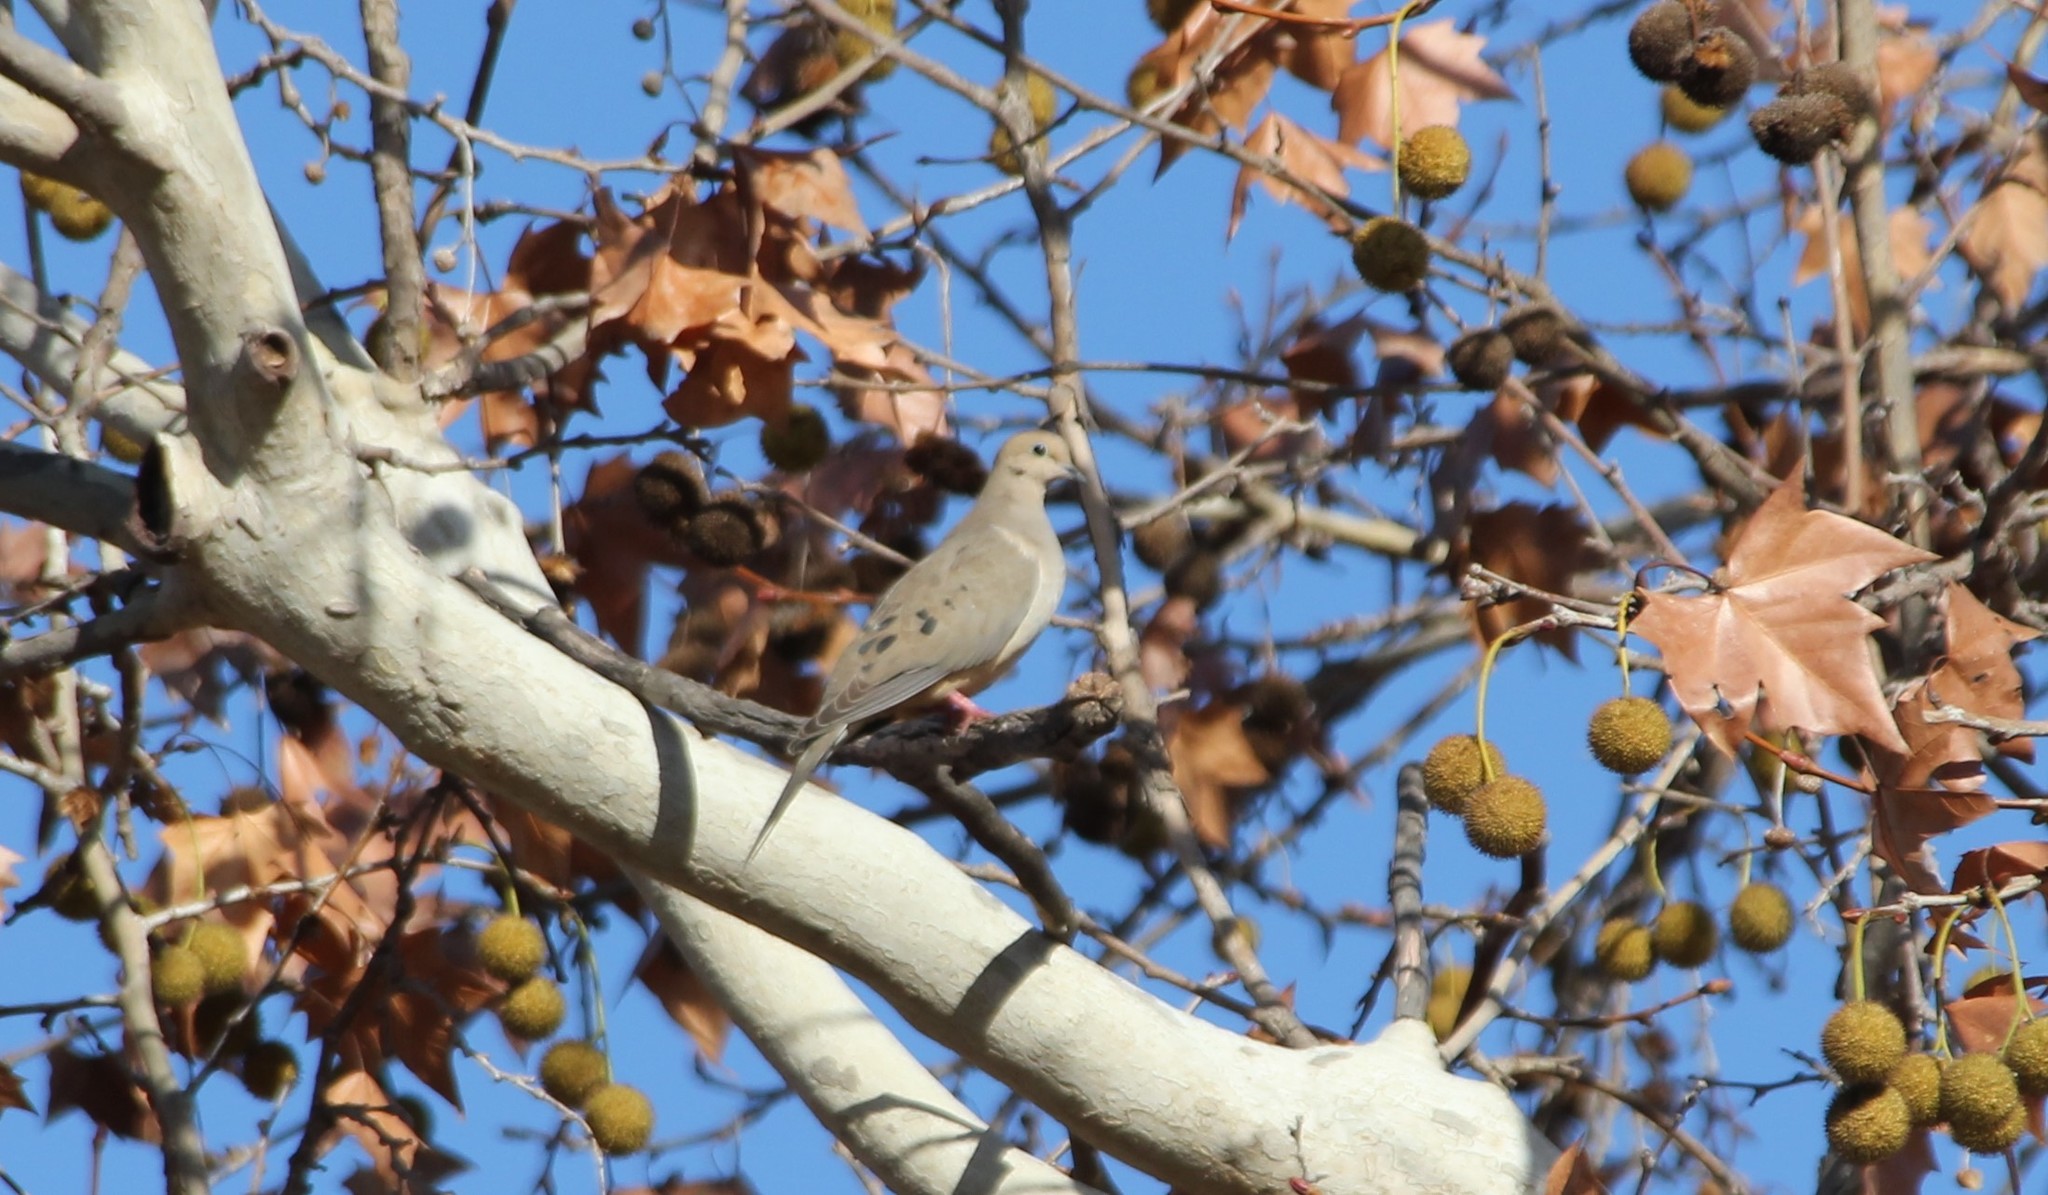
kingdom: Animalia
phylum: Chordata
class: Aves
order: Columbiformes
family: Columbidae
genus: Zenaida
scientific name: Zenaida macroura
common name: Mourning dove
